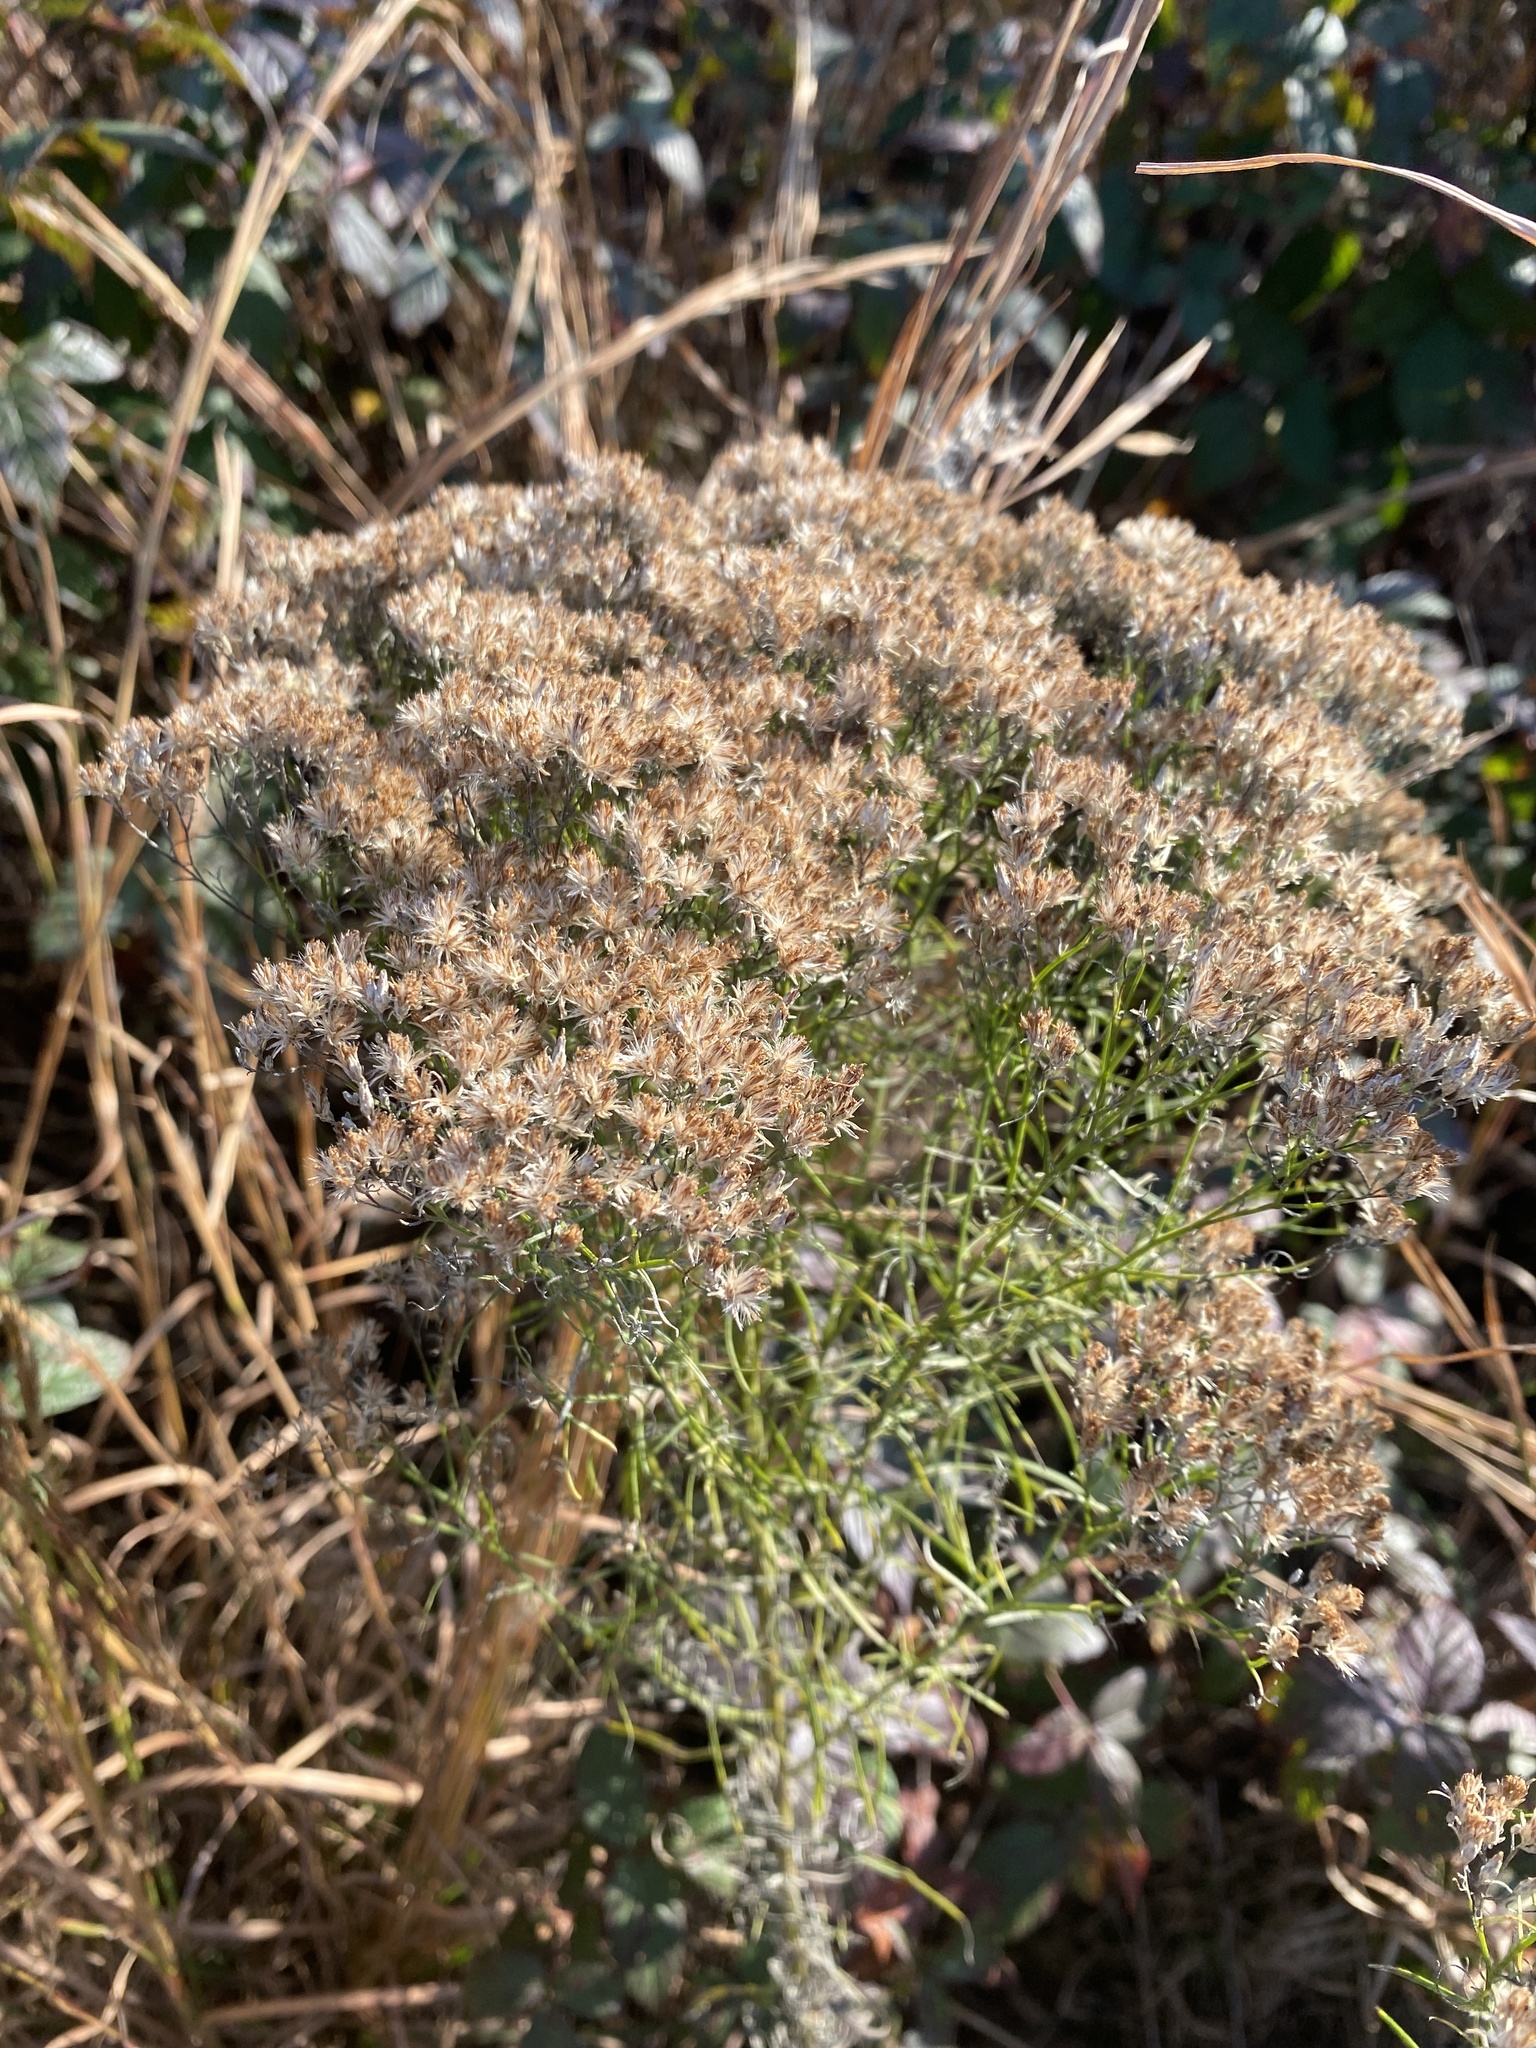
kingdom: Plantae
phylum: Tracheophyta
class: Magnoliopsida
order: Asterales
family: Asteraceae
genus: Euthamia
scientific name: Euthamia caroliniana
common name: Coastal plain goldentop
